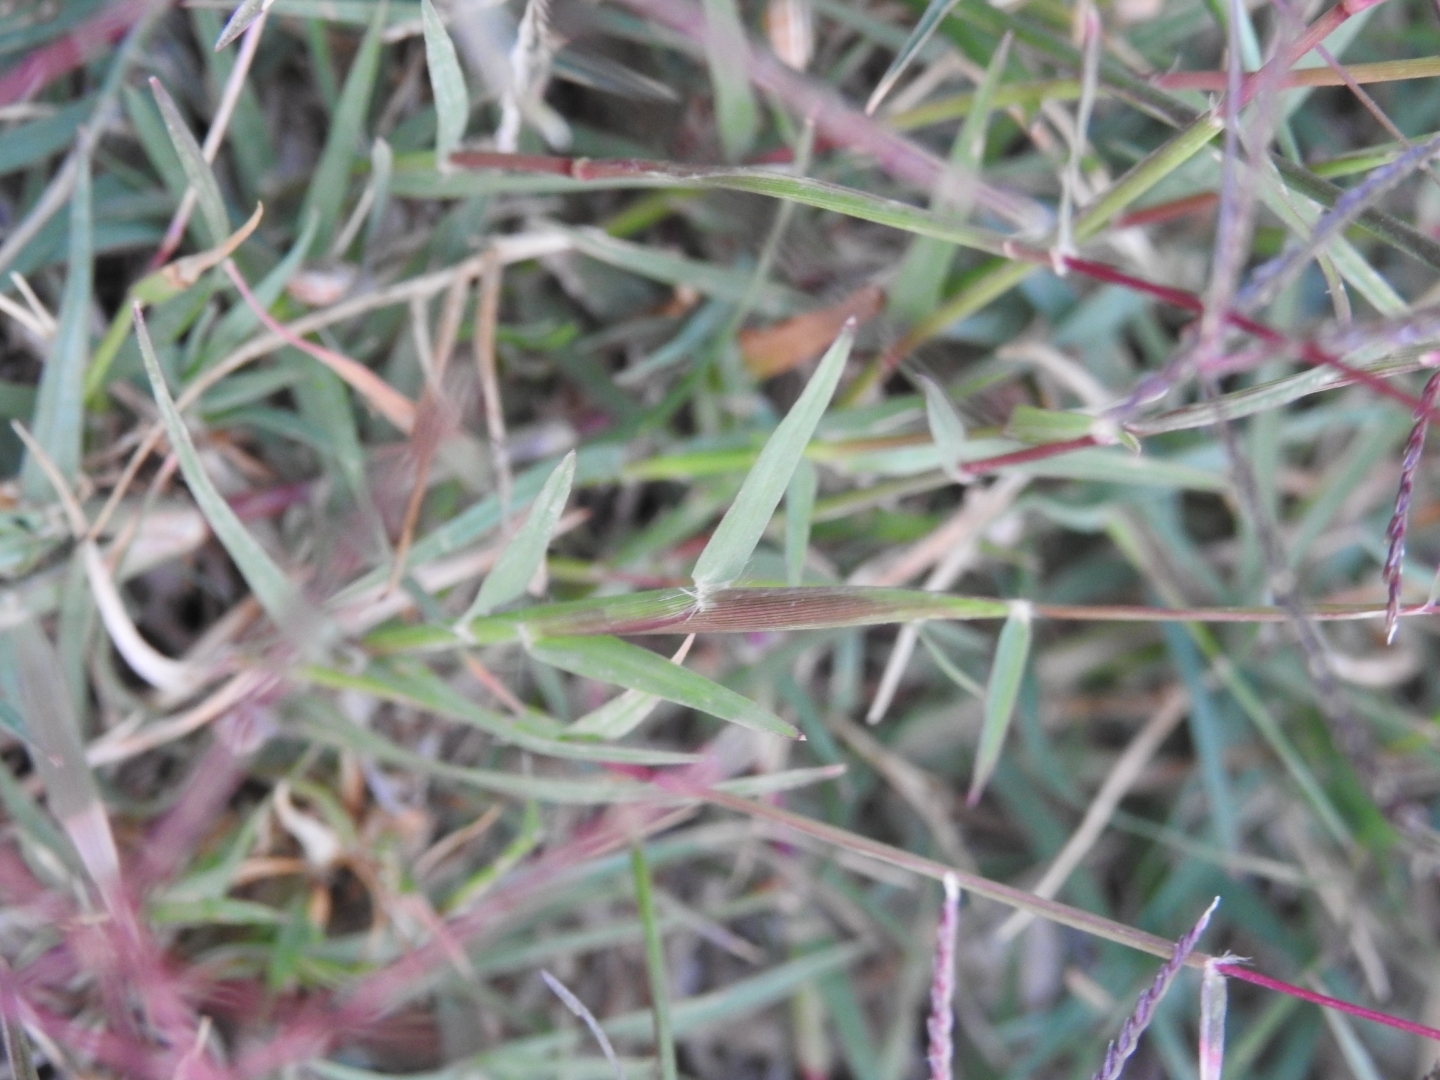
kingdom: Plantae
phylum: Tracheophyta
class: Liliopsida
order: Poales
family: Poaceae
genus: Cynodon
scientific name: Cynodon dactylon
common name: Bermuda grass
